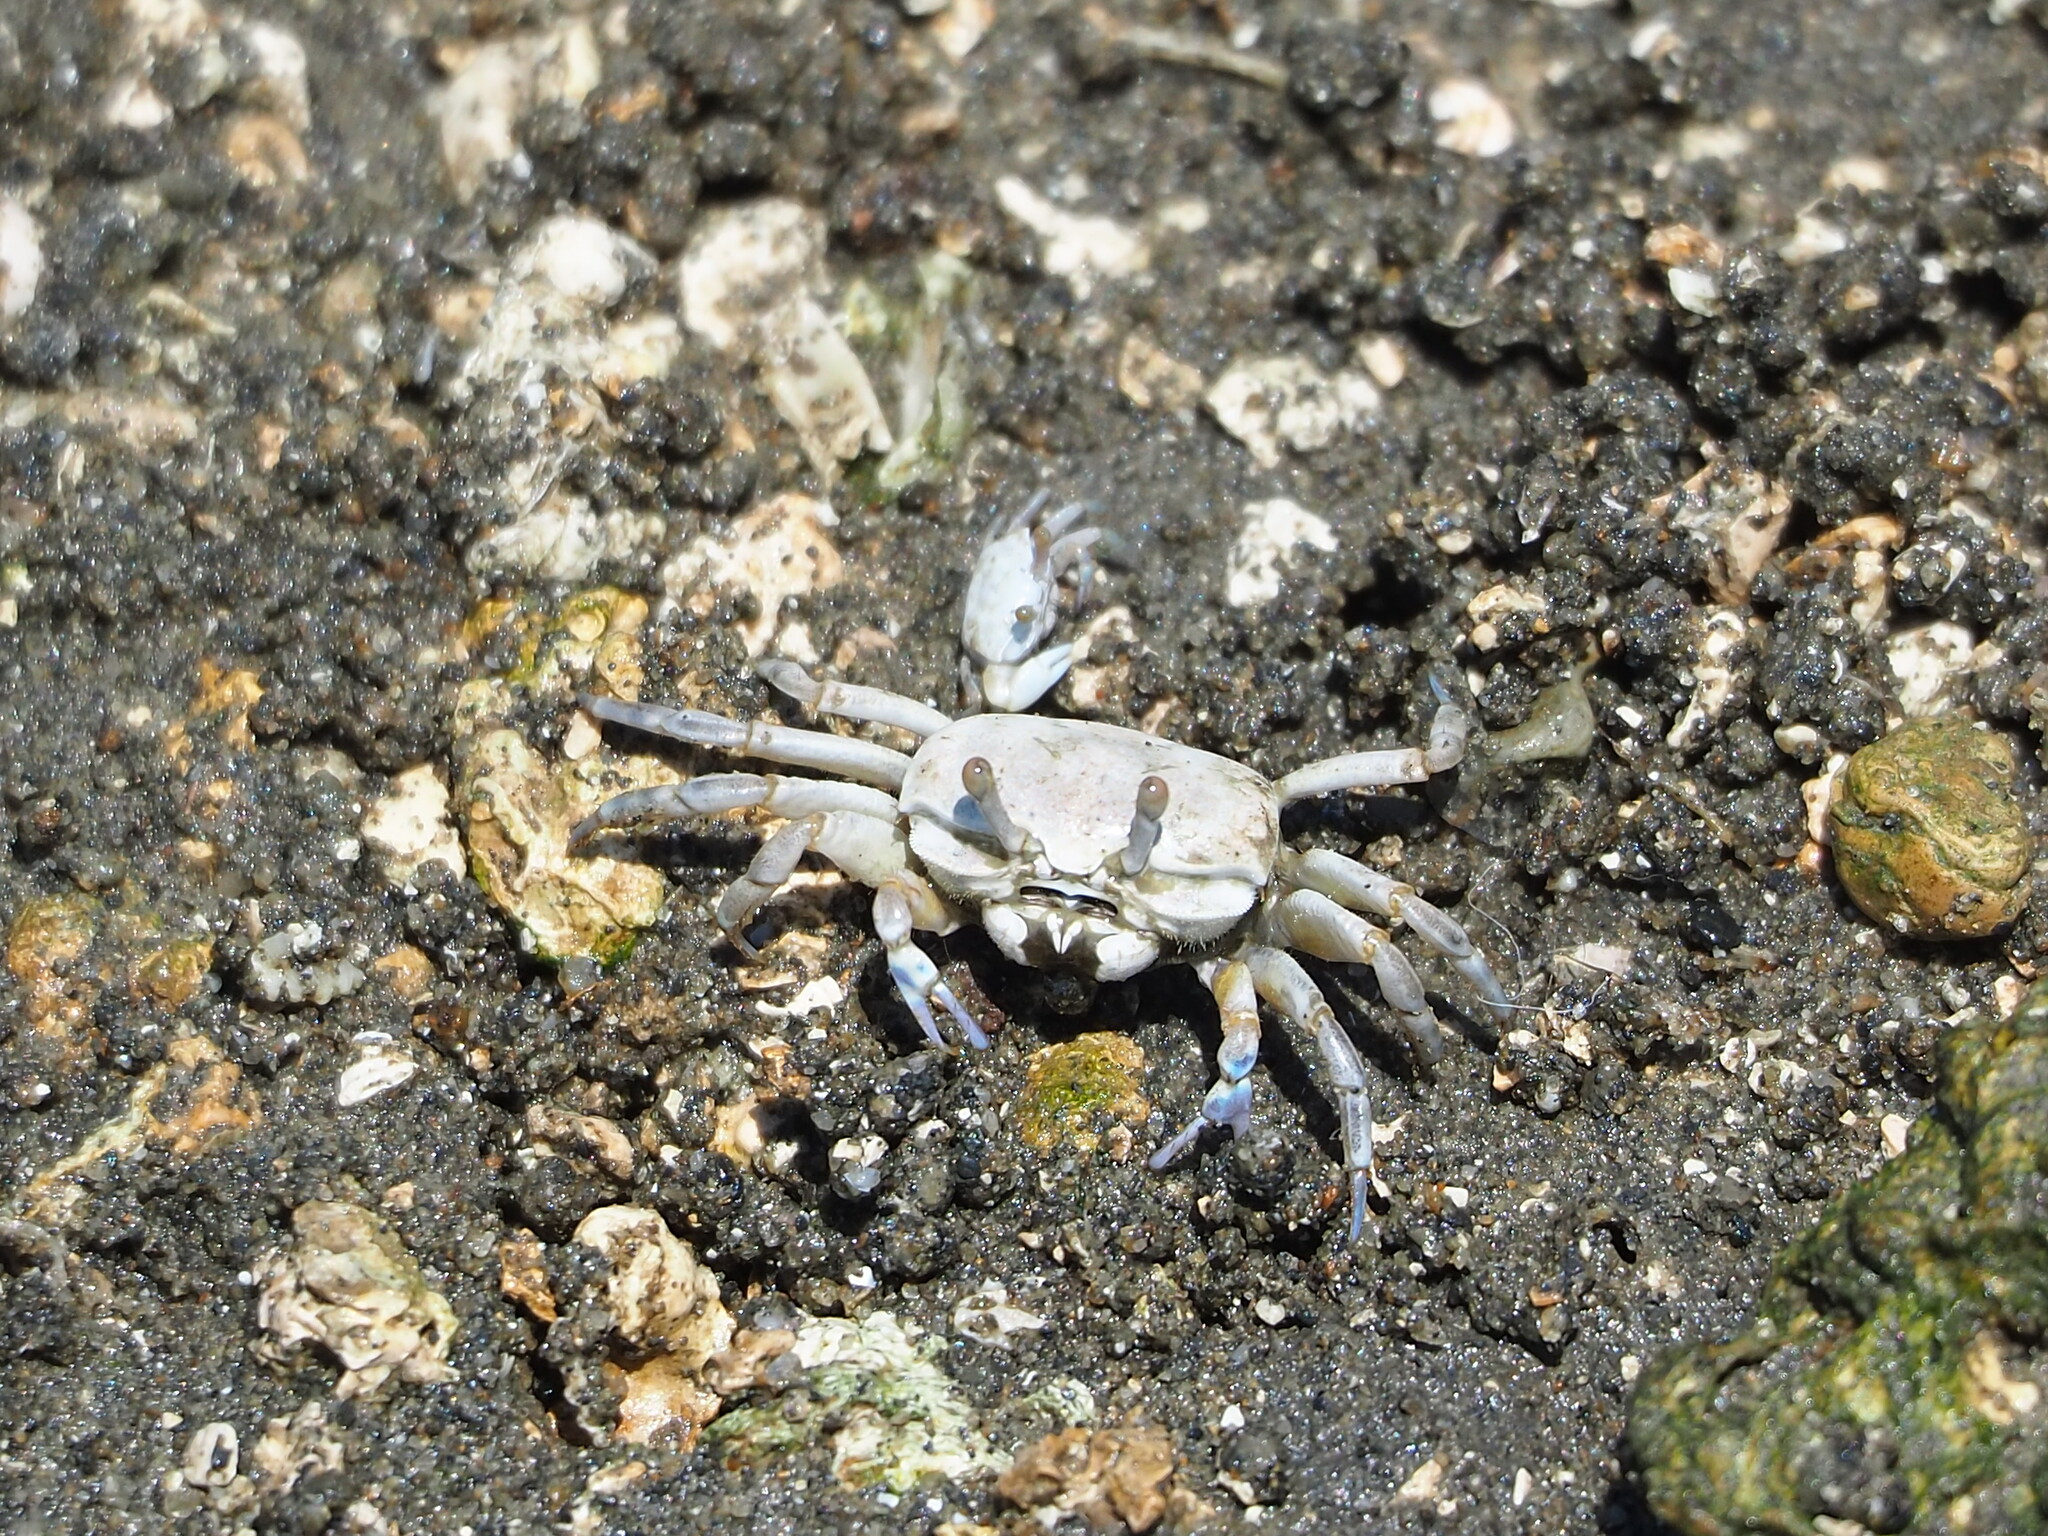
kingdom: Animalia
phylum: Arthropoda
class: Malacostraca
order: Decapoda
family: Ocypodidae
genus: Austruca
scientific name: Austruca lactea
